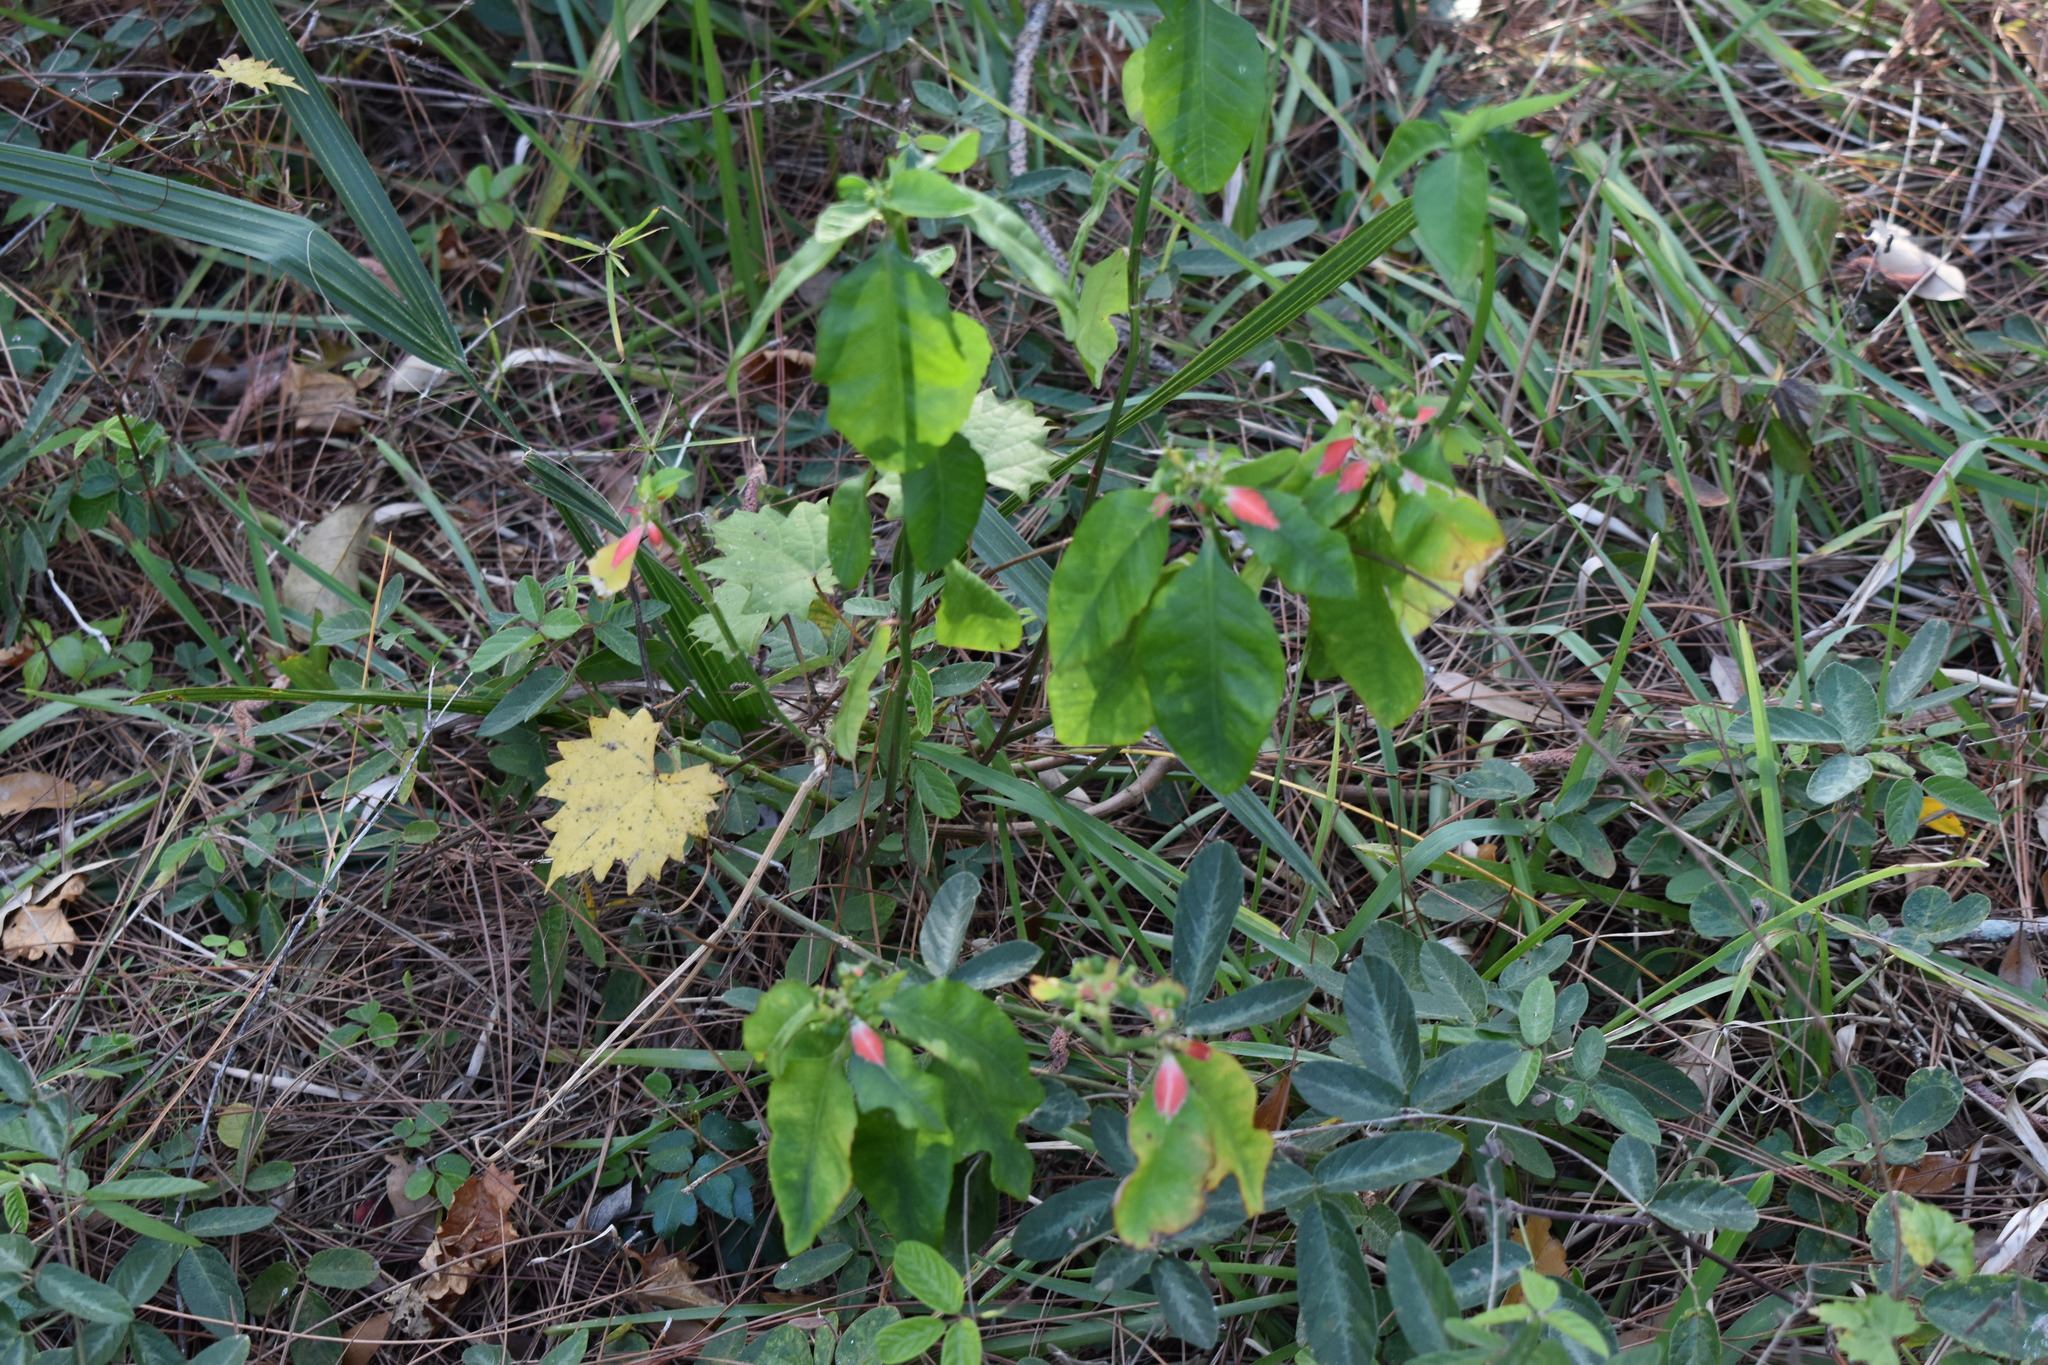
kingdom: Plantae
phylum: Tracheophyta
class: Magnoliopsida
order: Malpighiales
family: Euphorbiaceae
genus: Euphorbia
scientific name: Euphorbia heterophylla
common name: Mexican fireplant
